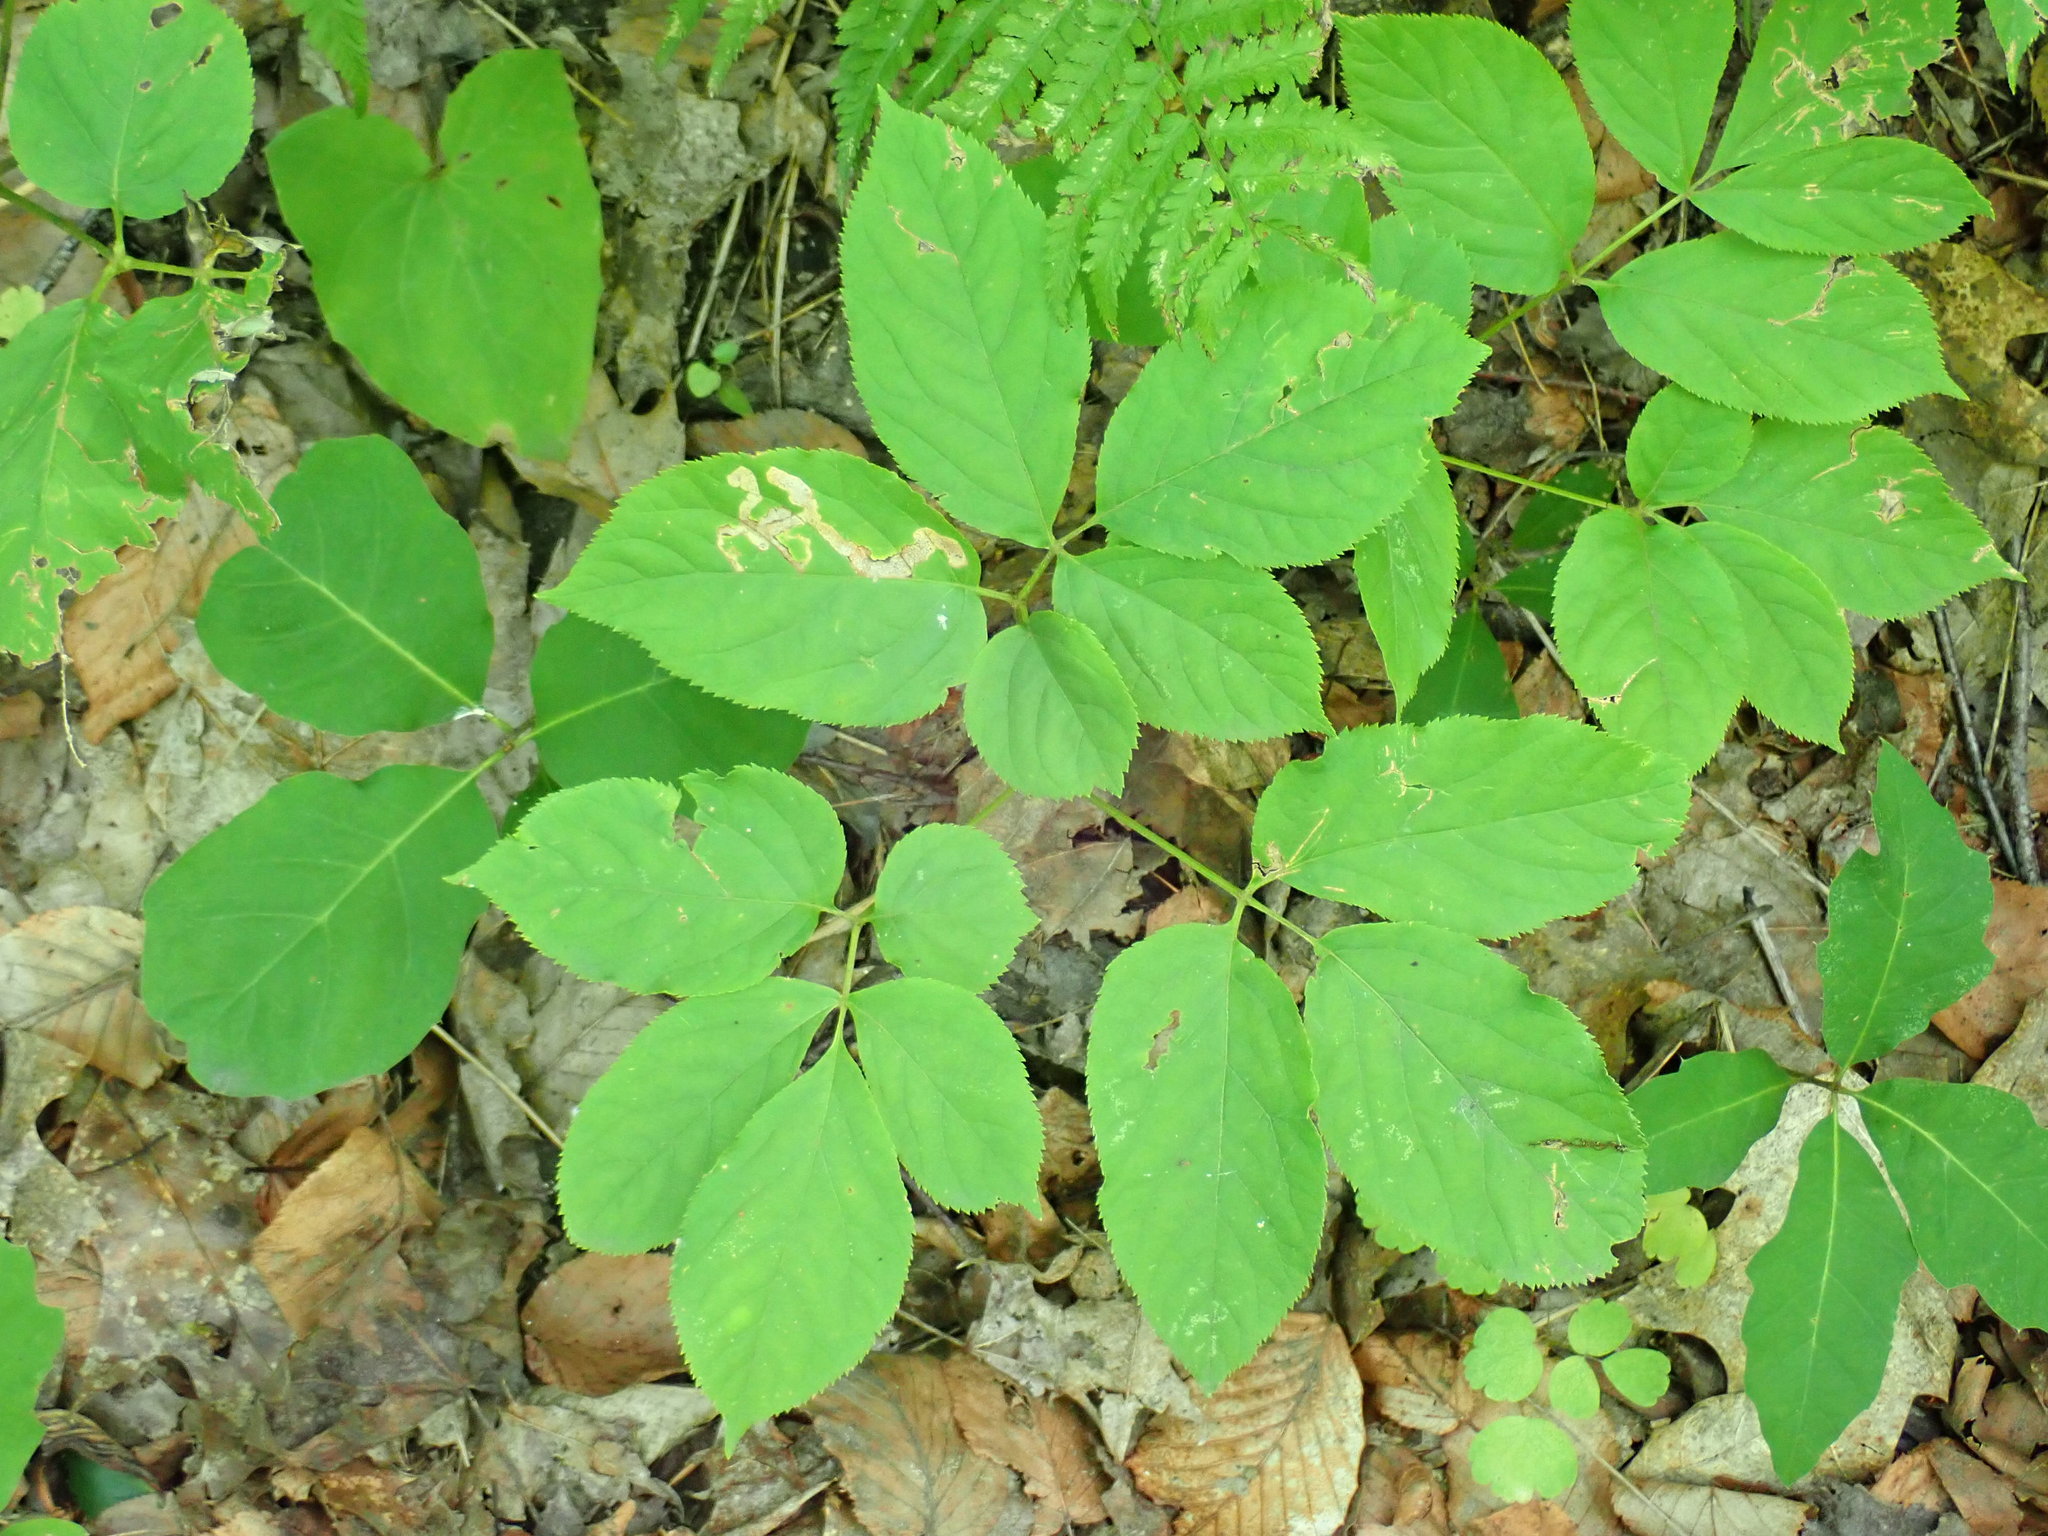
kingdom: Plantae
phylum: Tracheophyta
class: Magnoliopsida
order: Apiales
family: Araliaceae
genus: Aralia
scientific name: Aralia nudicaulis
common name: Wild sarsaparilla
